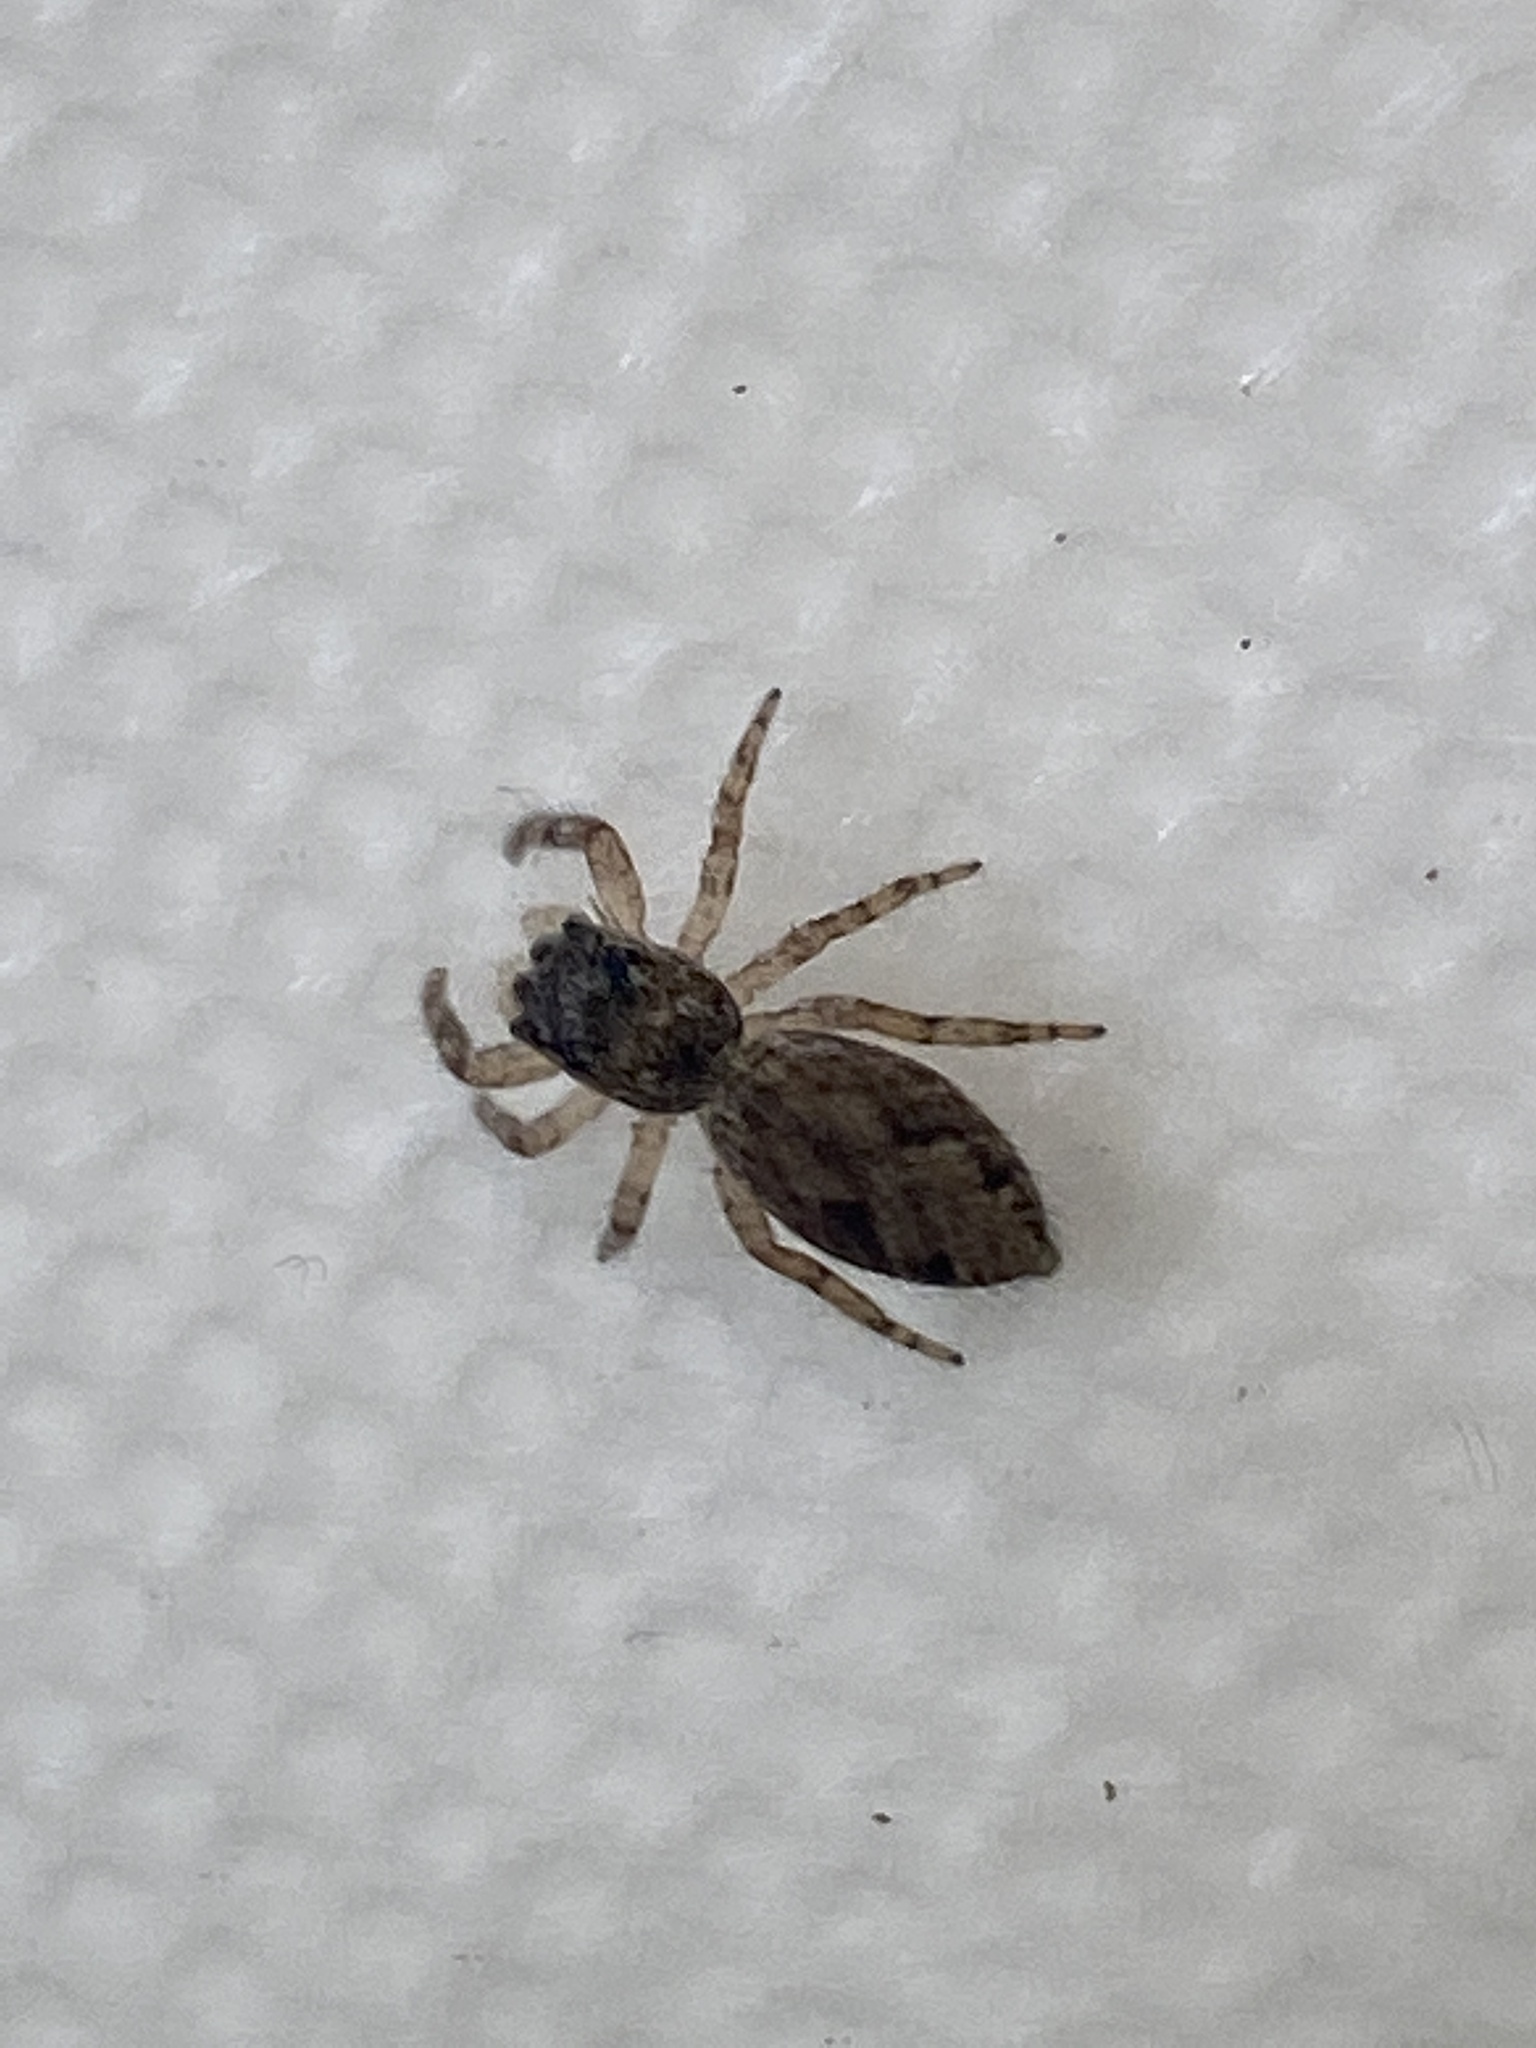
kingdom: Animalia
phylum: Arthropoda
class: Arachnida
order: Araneae
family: Salticidae
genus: Platycryptus
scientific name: Platycryptus undatus
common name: Tan jumping spider
